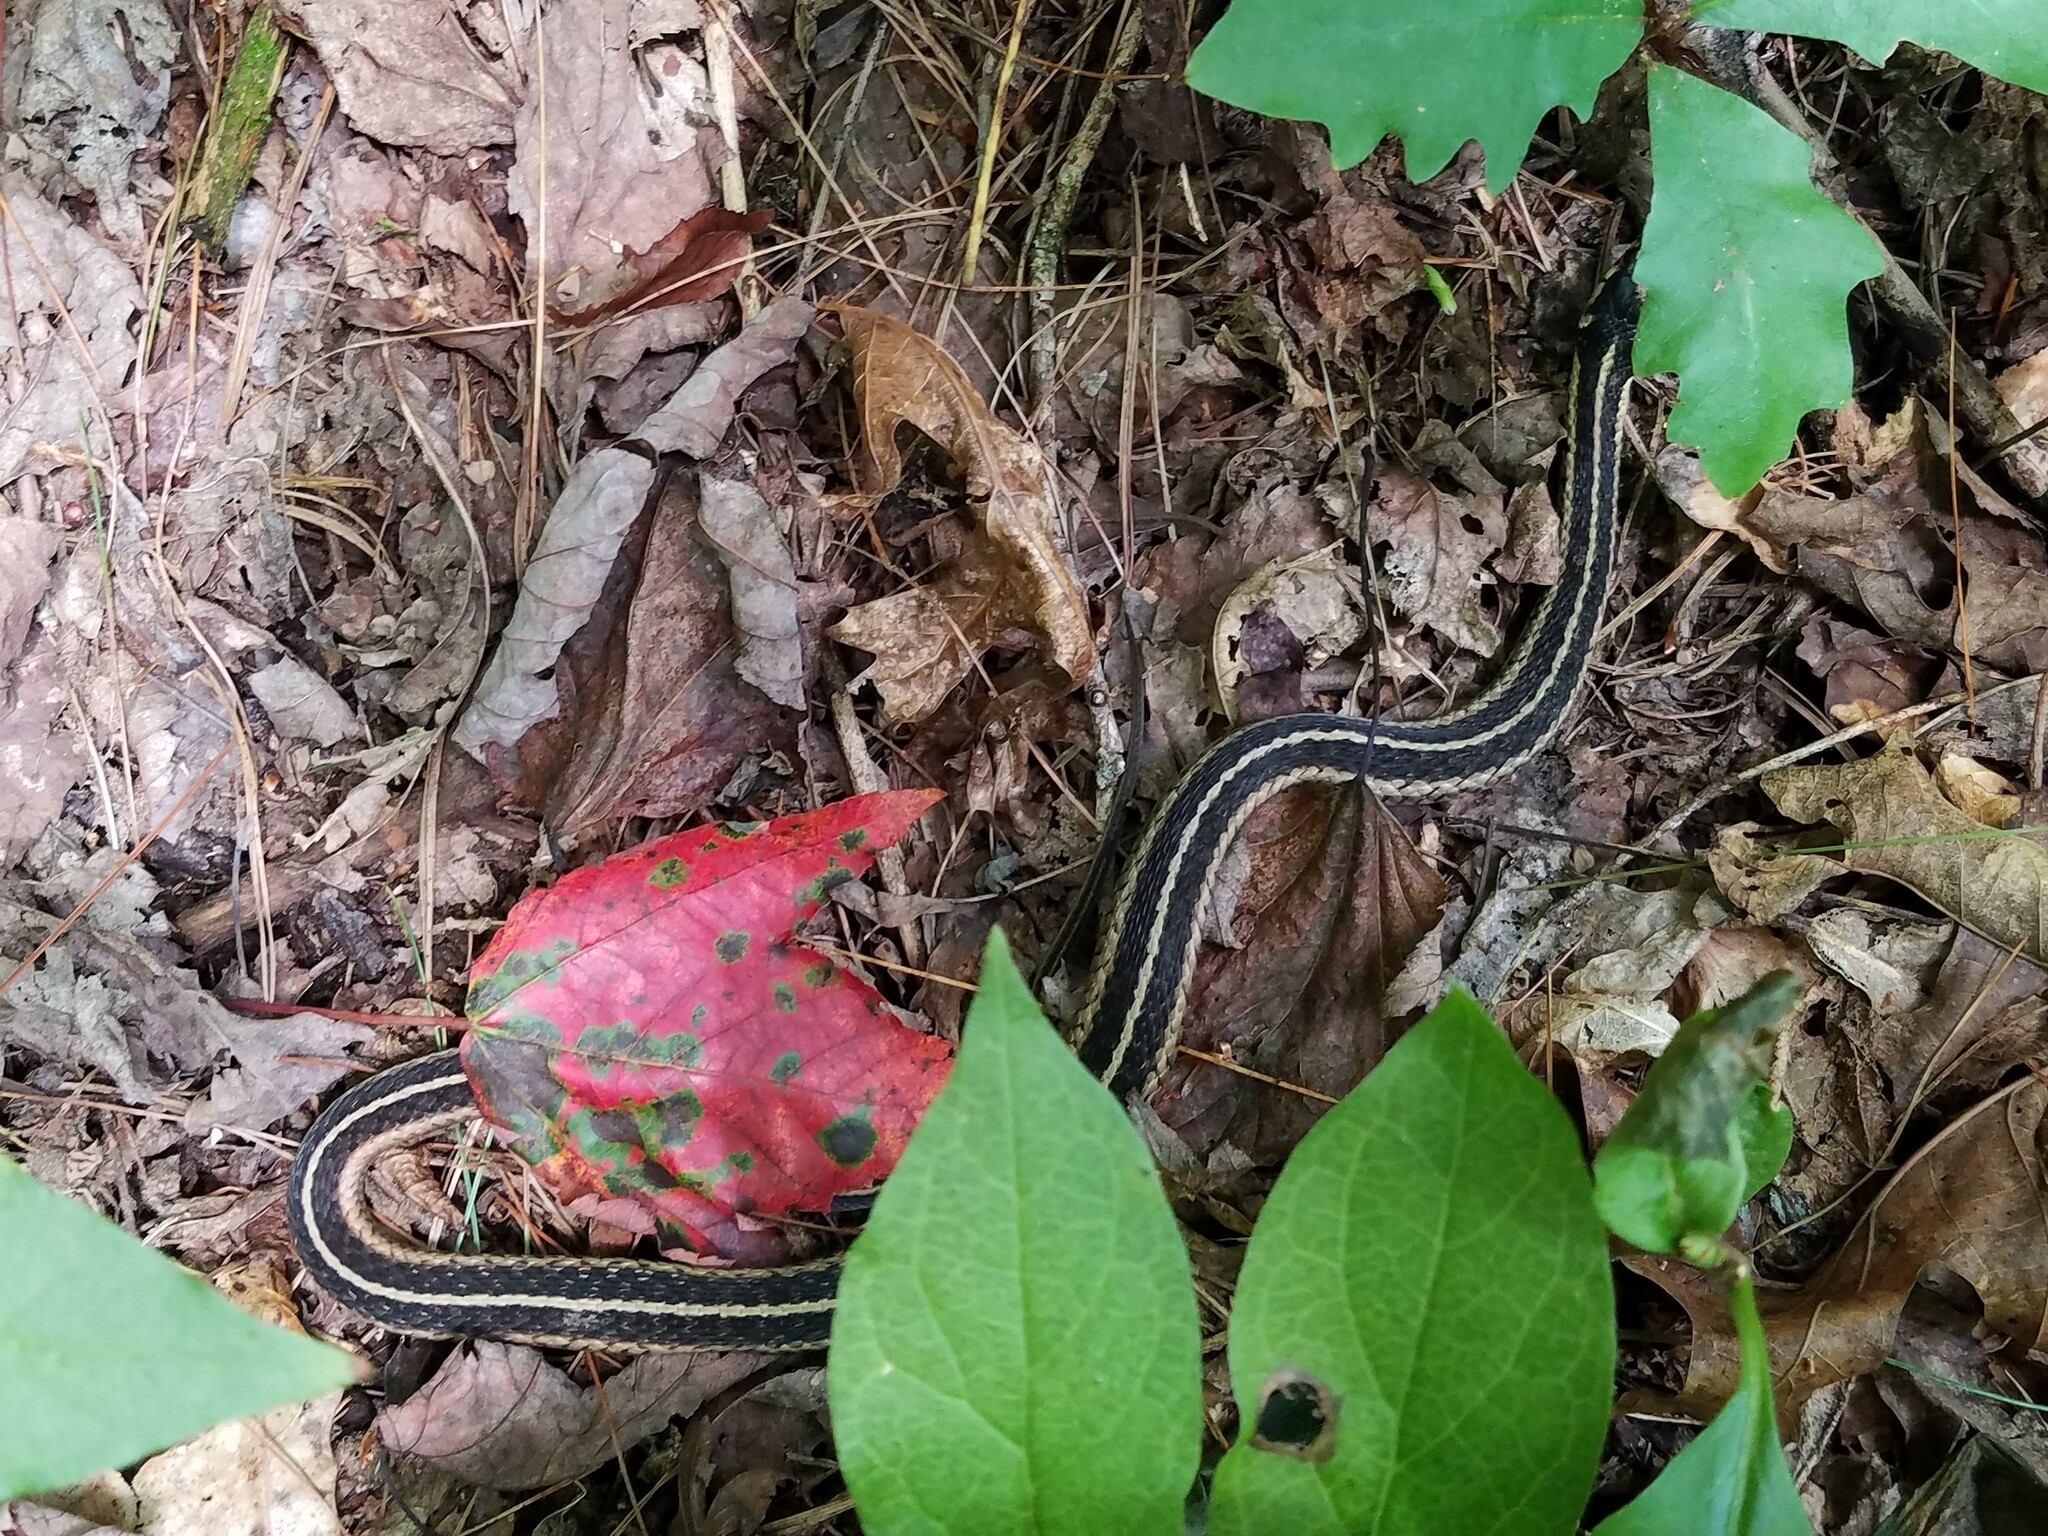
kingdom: Animalia
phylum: Chordata
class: Squamata
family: Colubridae
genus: Thamnophis
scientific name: Thamnophis sirtalis
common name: Common garter snake
